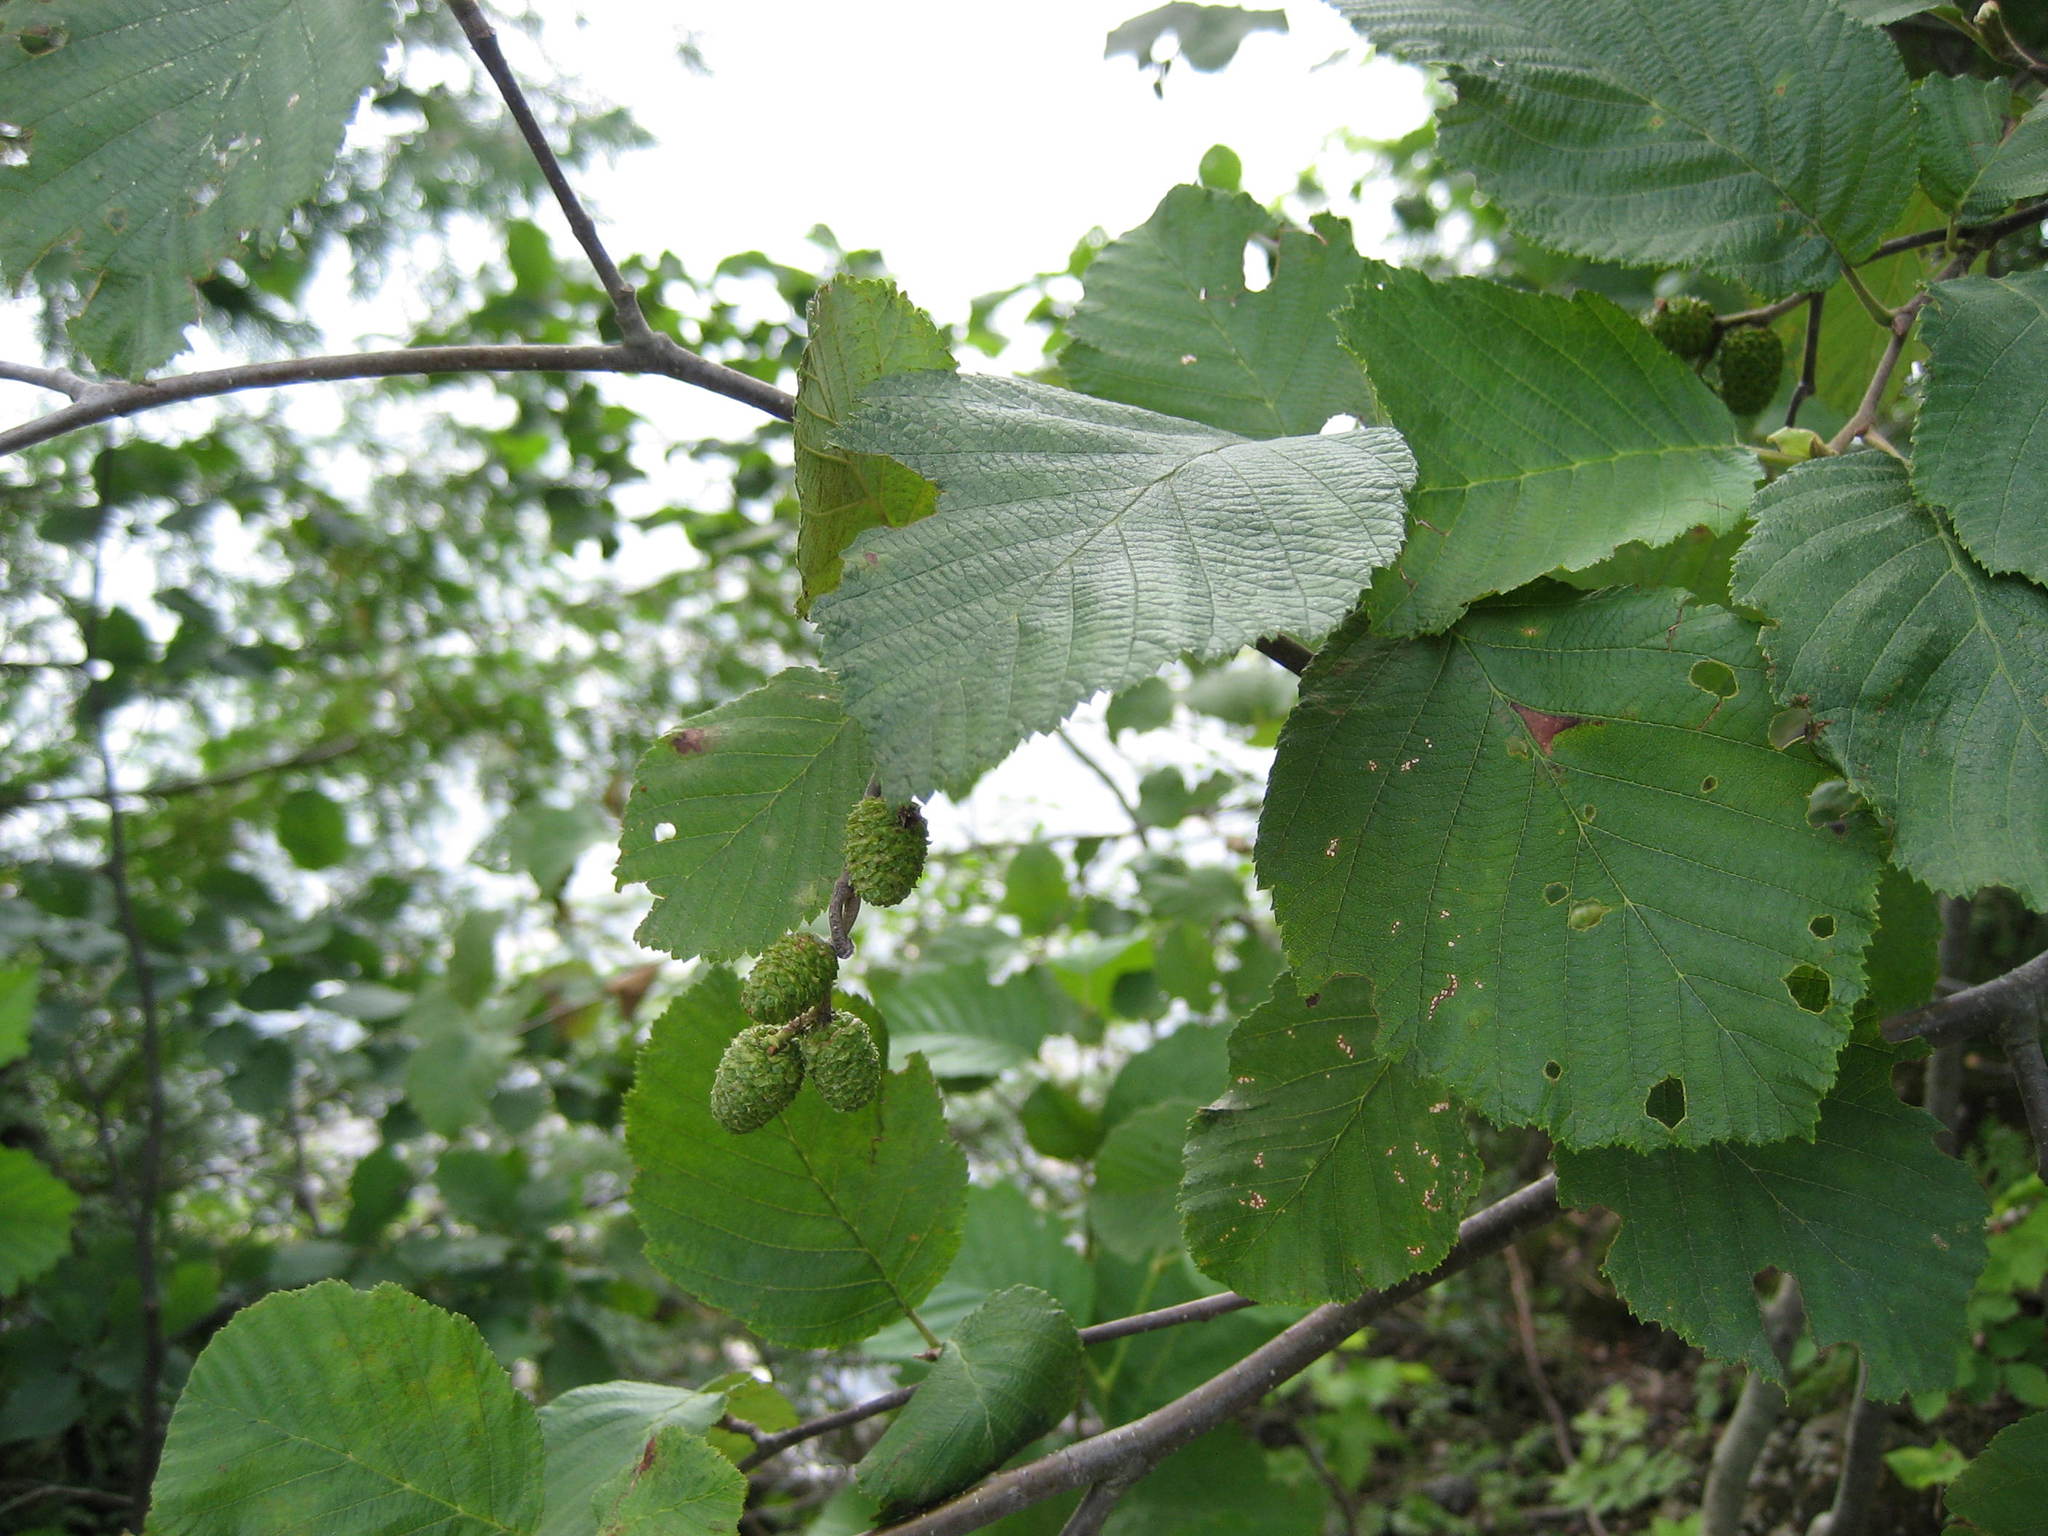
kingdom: Plantae
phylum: Tracheophyta
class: Magnoliopsida
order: Fagales
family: Betulaceae
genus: Alnus
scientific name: Alnus incana
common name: Grey alder
